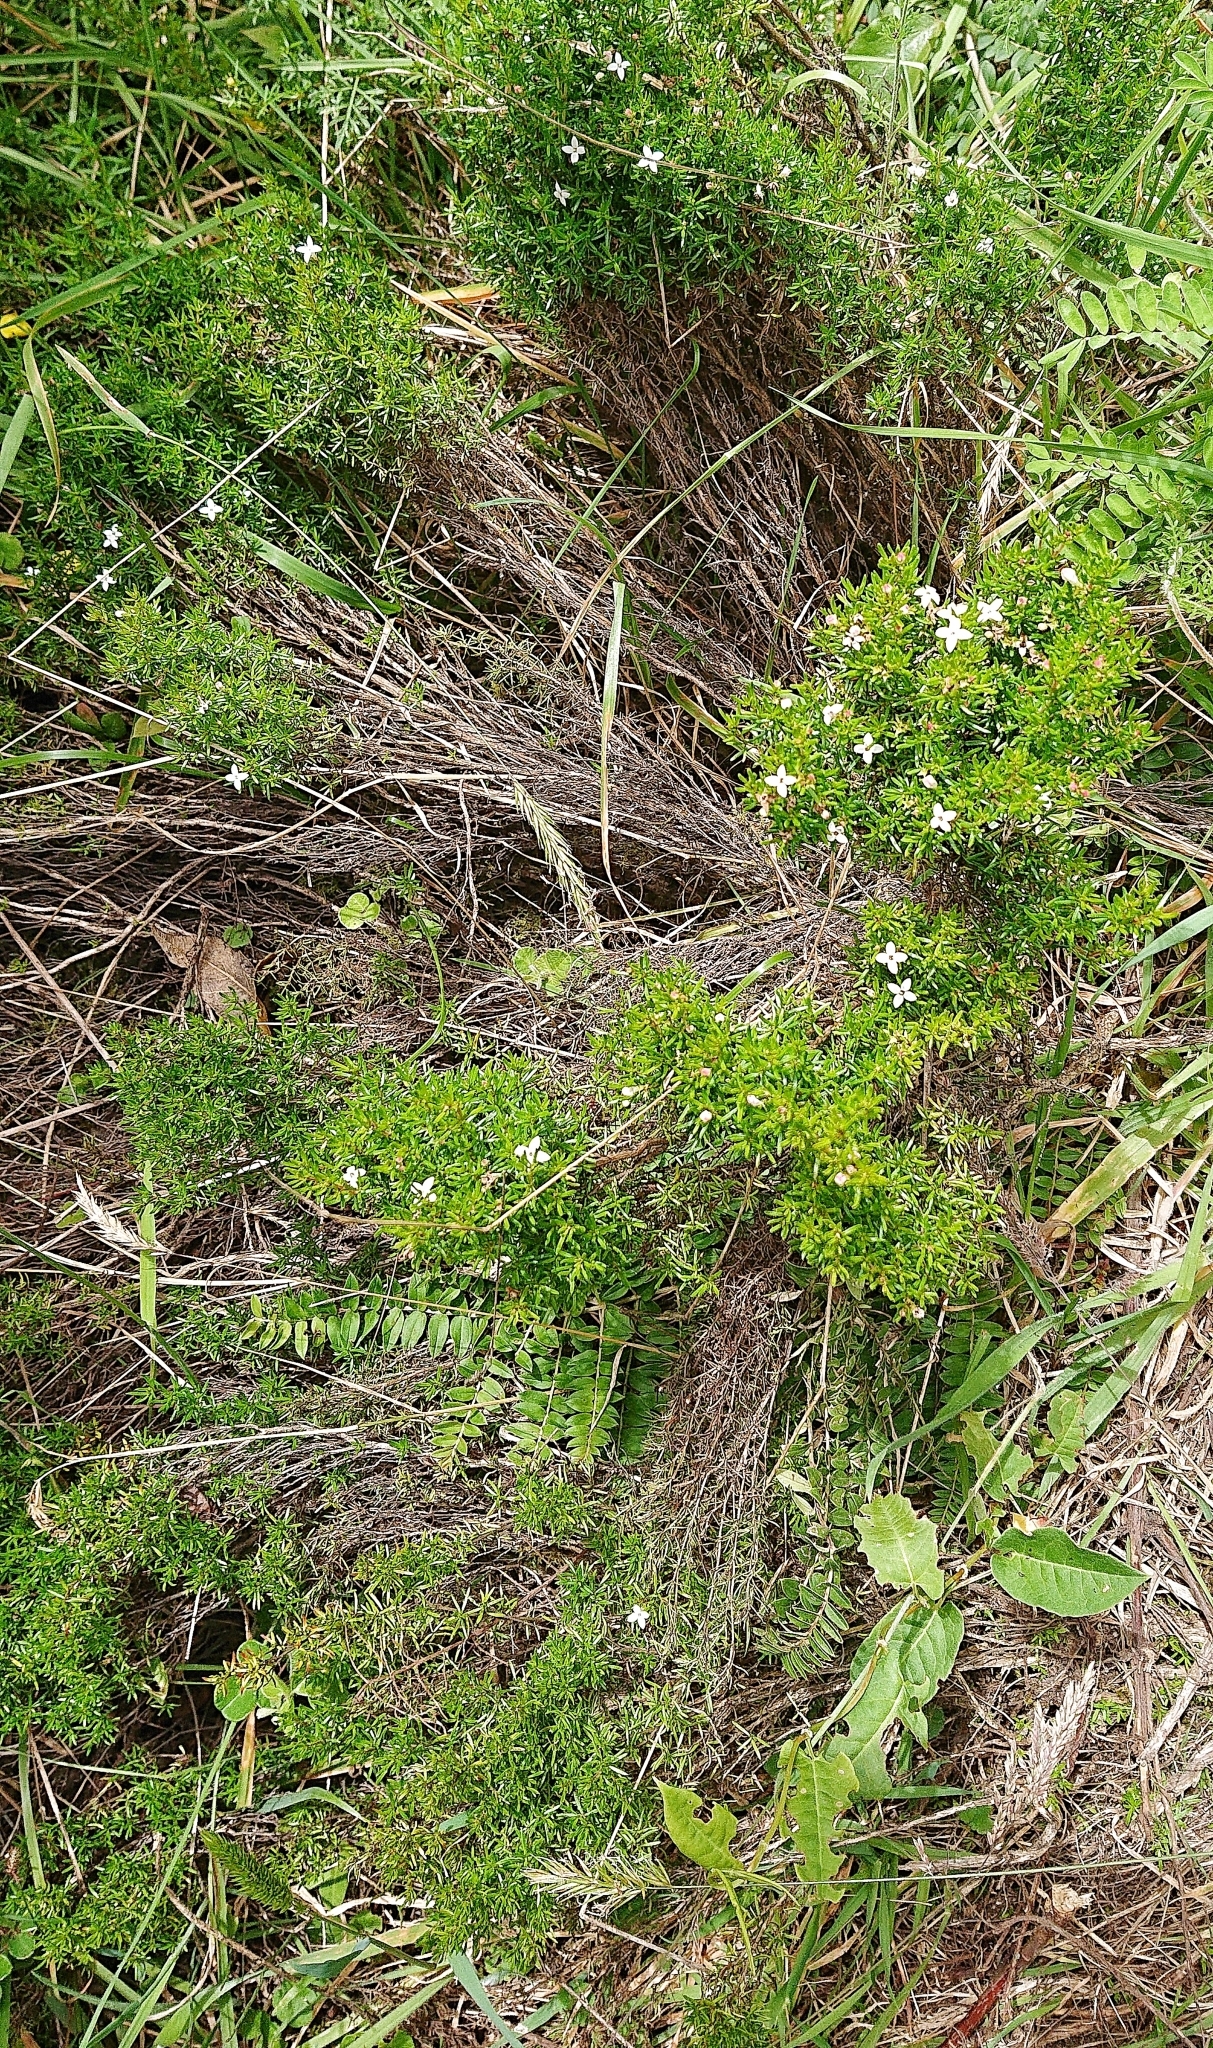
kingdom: Plantae
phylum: Tracheophyta
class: Magnoliopsida
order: Gentianales
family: Rubiaceae
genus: Arcytophyllum
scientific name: Arcytophyllum thymifolium
